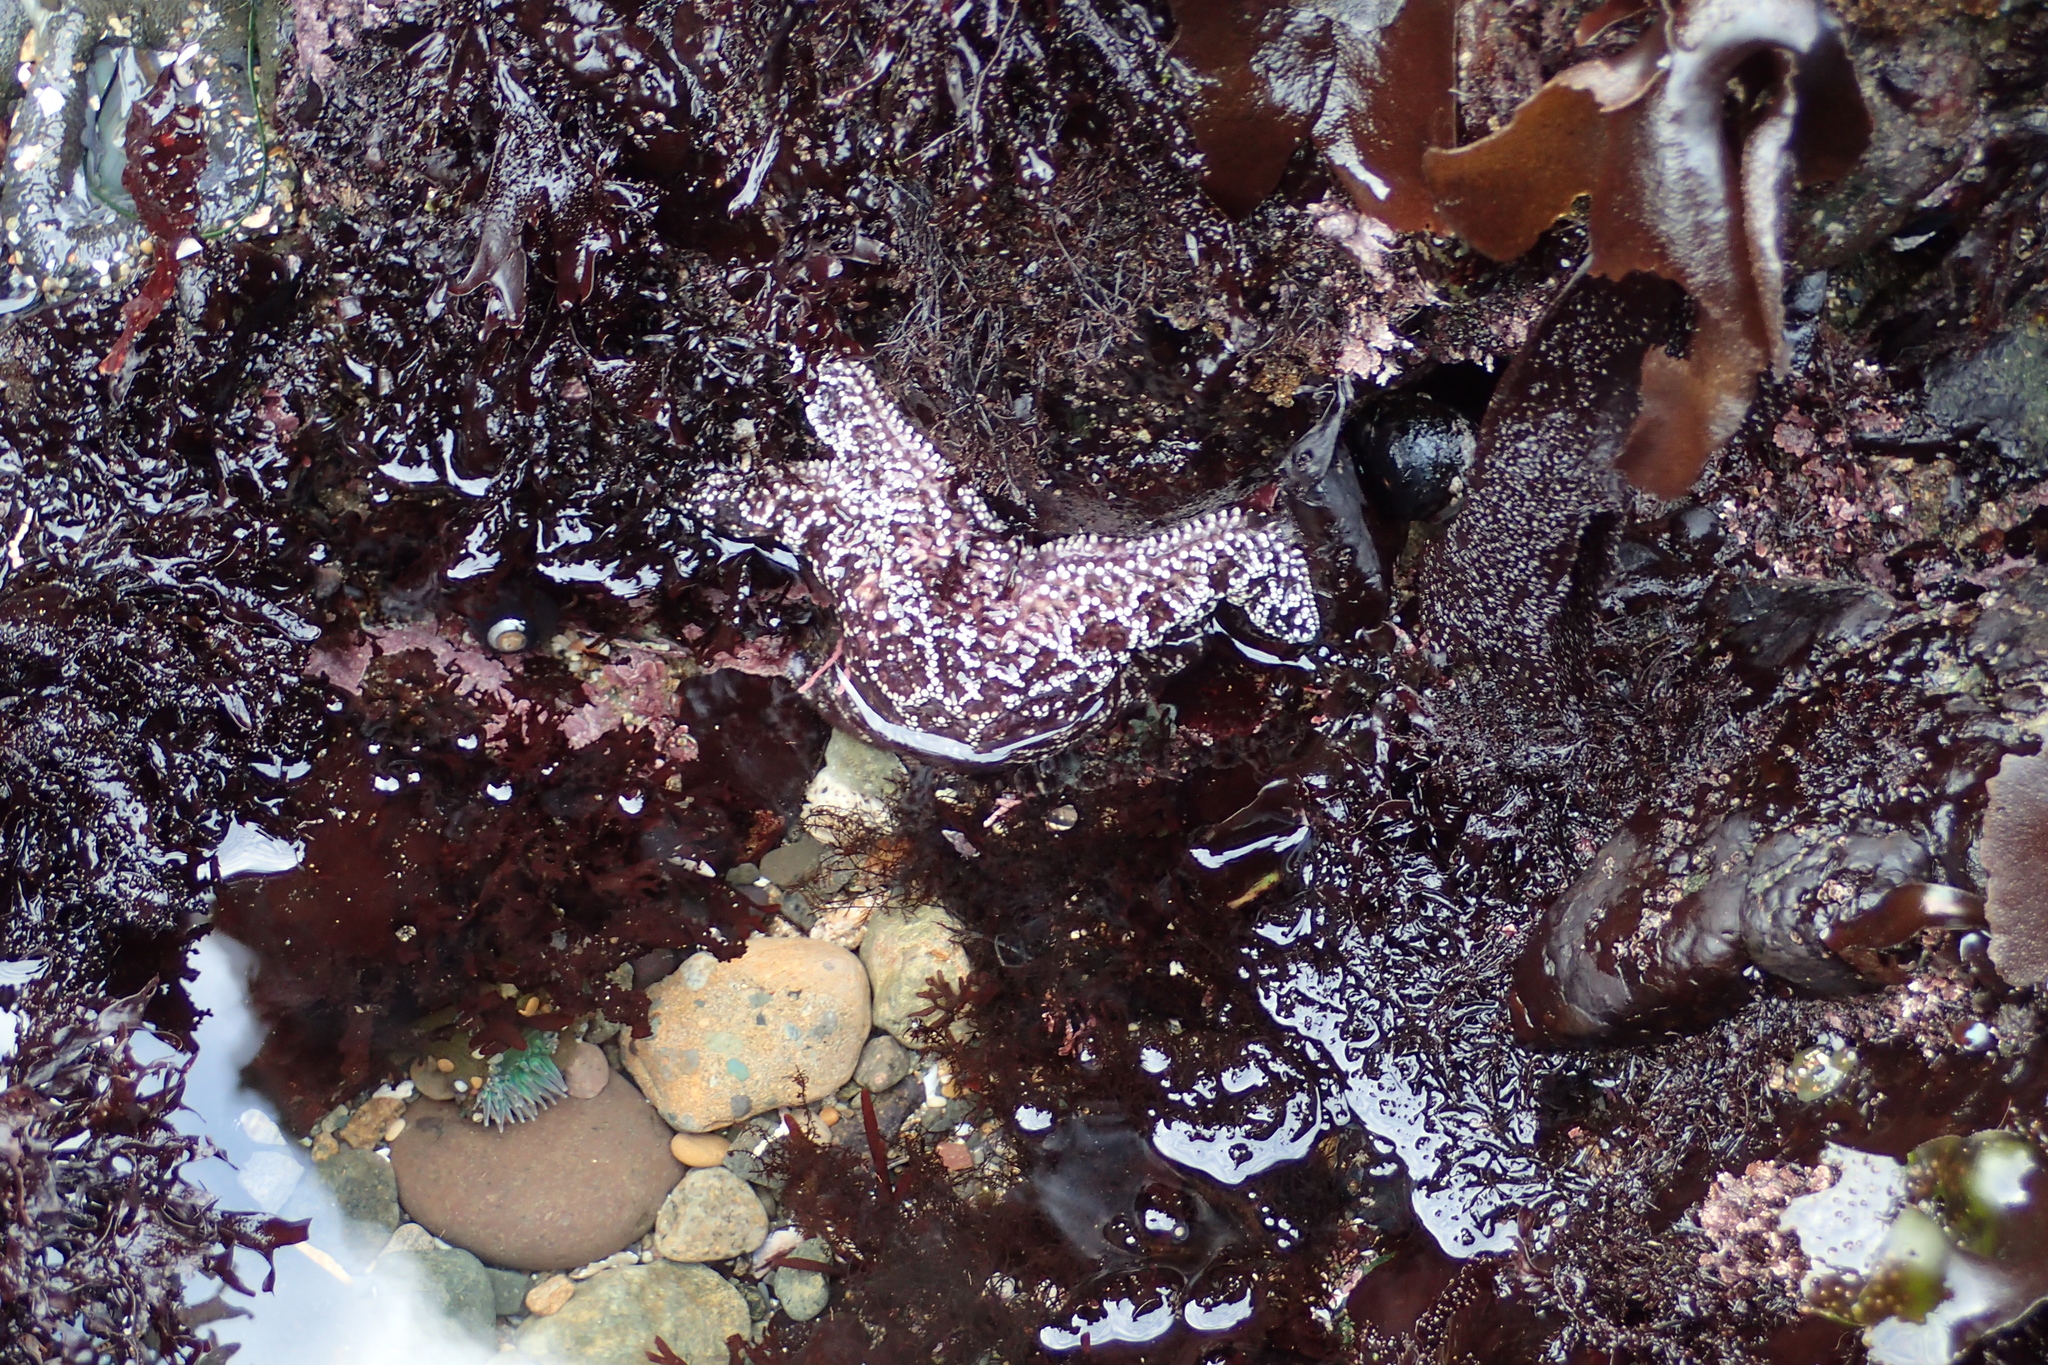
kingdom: Animalia
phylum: Echinodermata
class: Asteroidea
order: Forcipulatida
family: Asteriidae
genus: Pisaster
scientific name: Pisaster ochraceus
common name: Ochre stars
